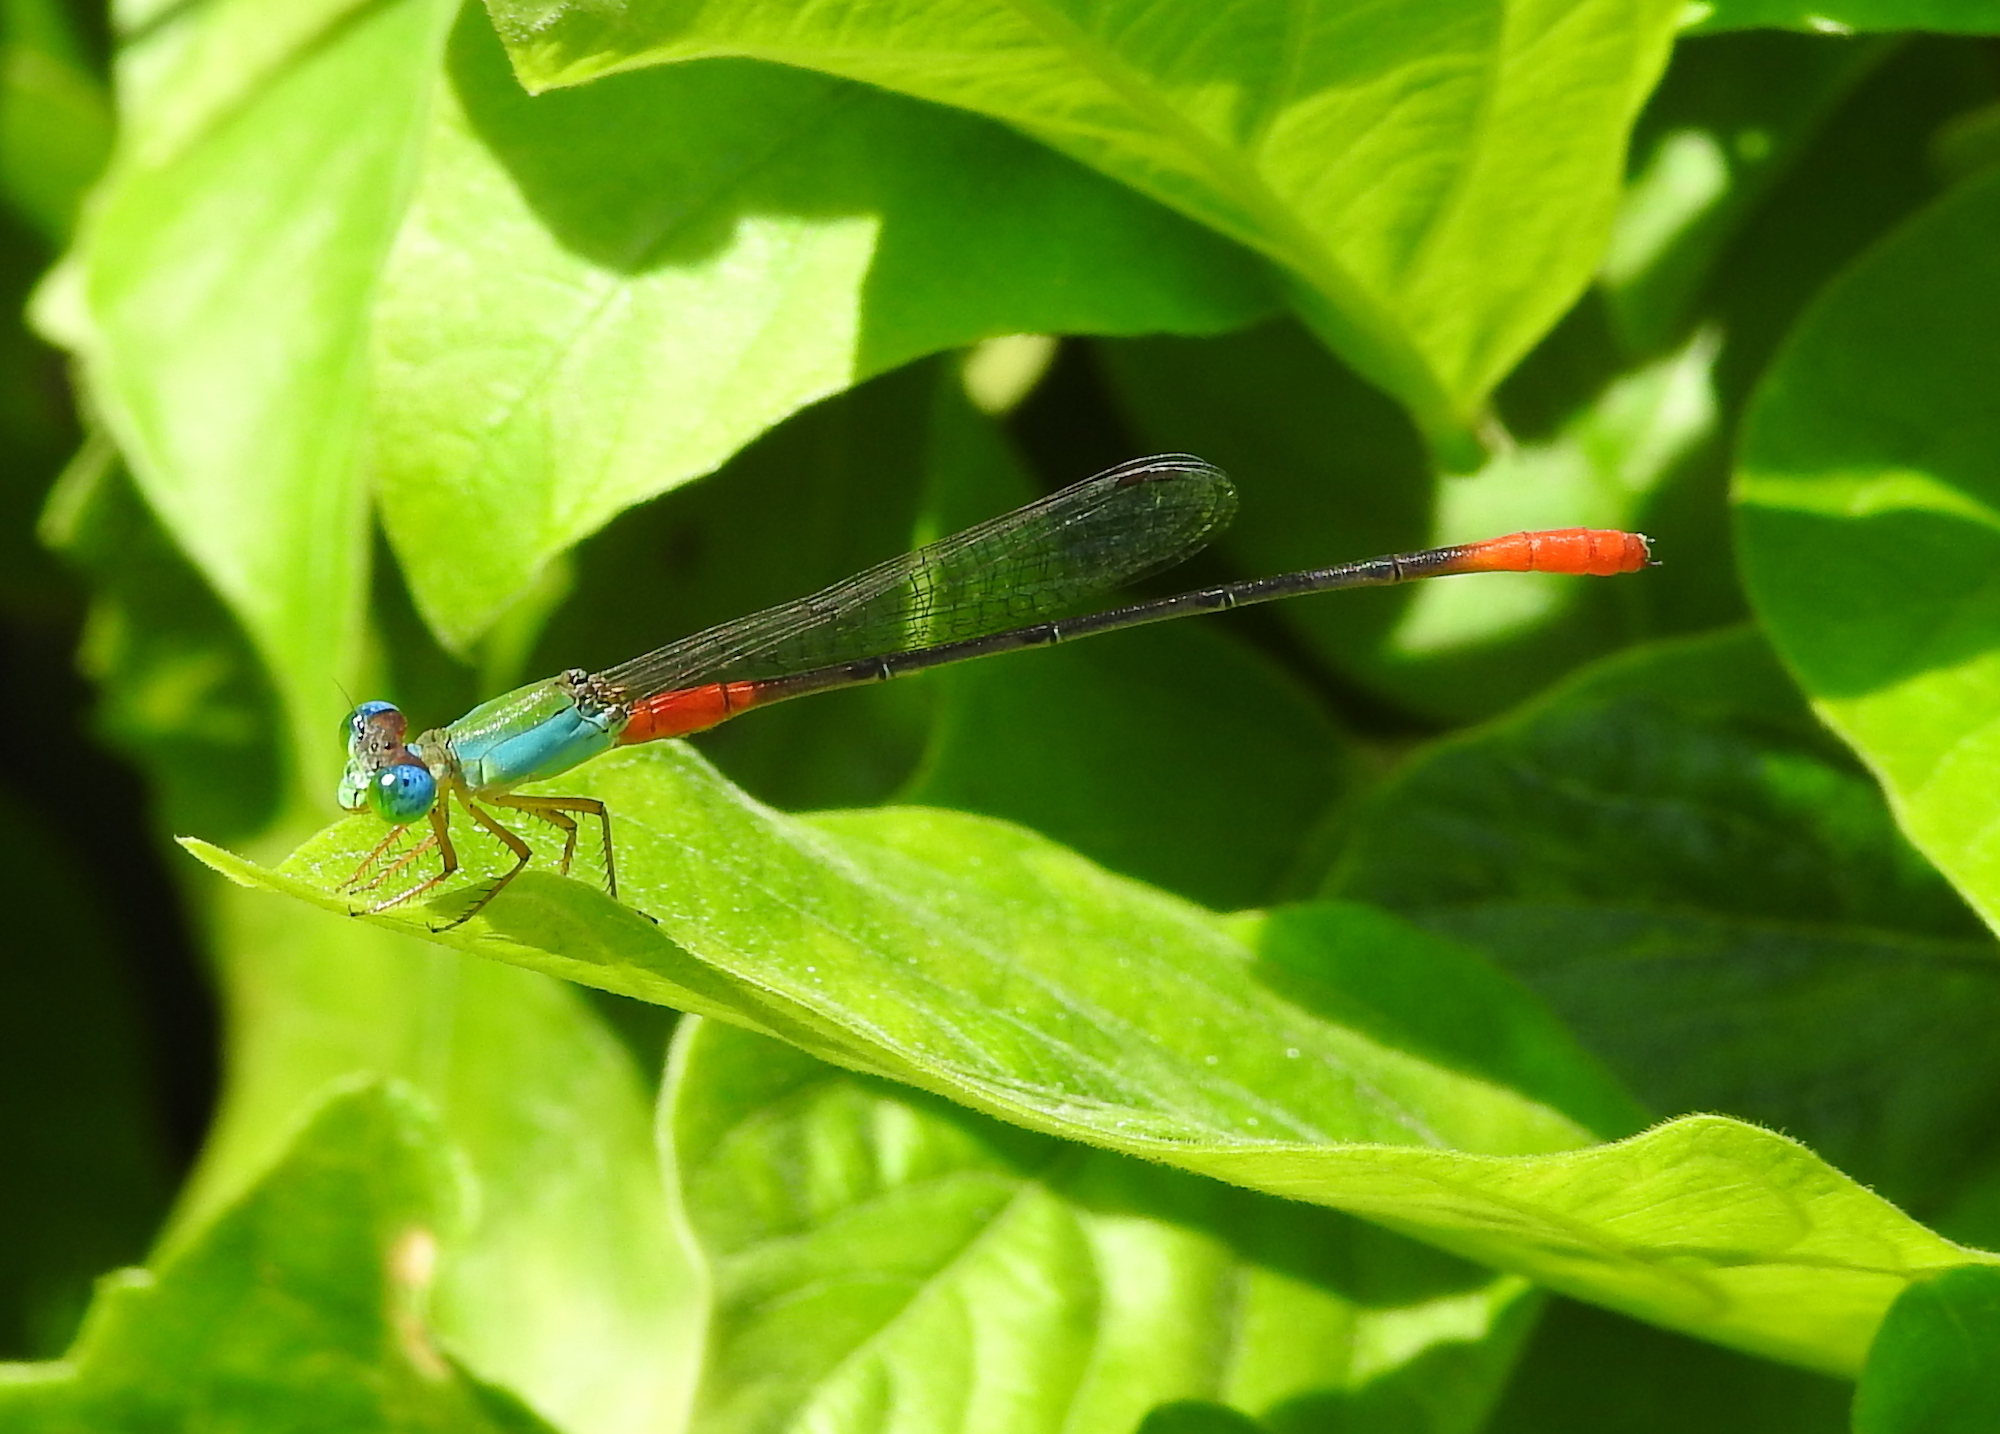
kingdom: Animalia
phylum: Arthropoda
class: Insecta
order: Odonata
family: Coenagrionidae
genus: Ceriagrion
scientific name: Ceriagrion cerinorubellum
